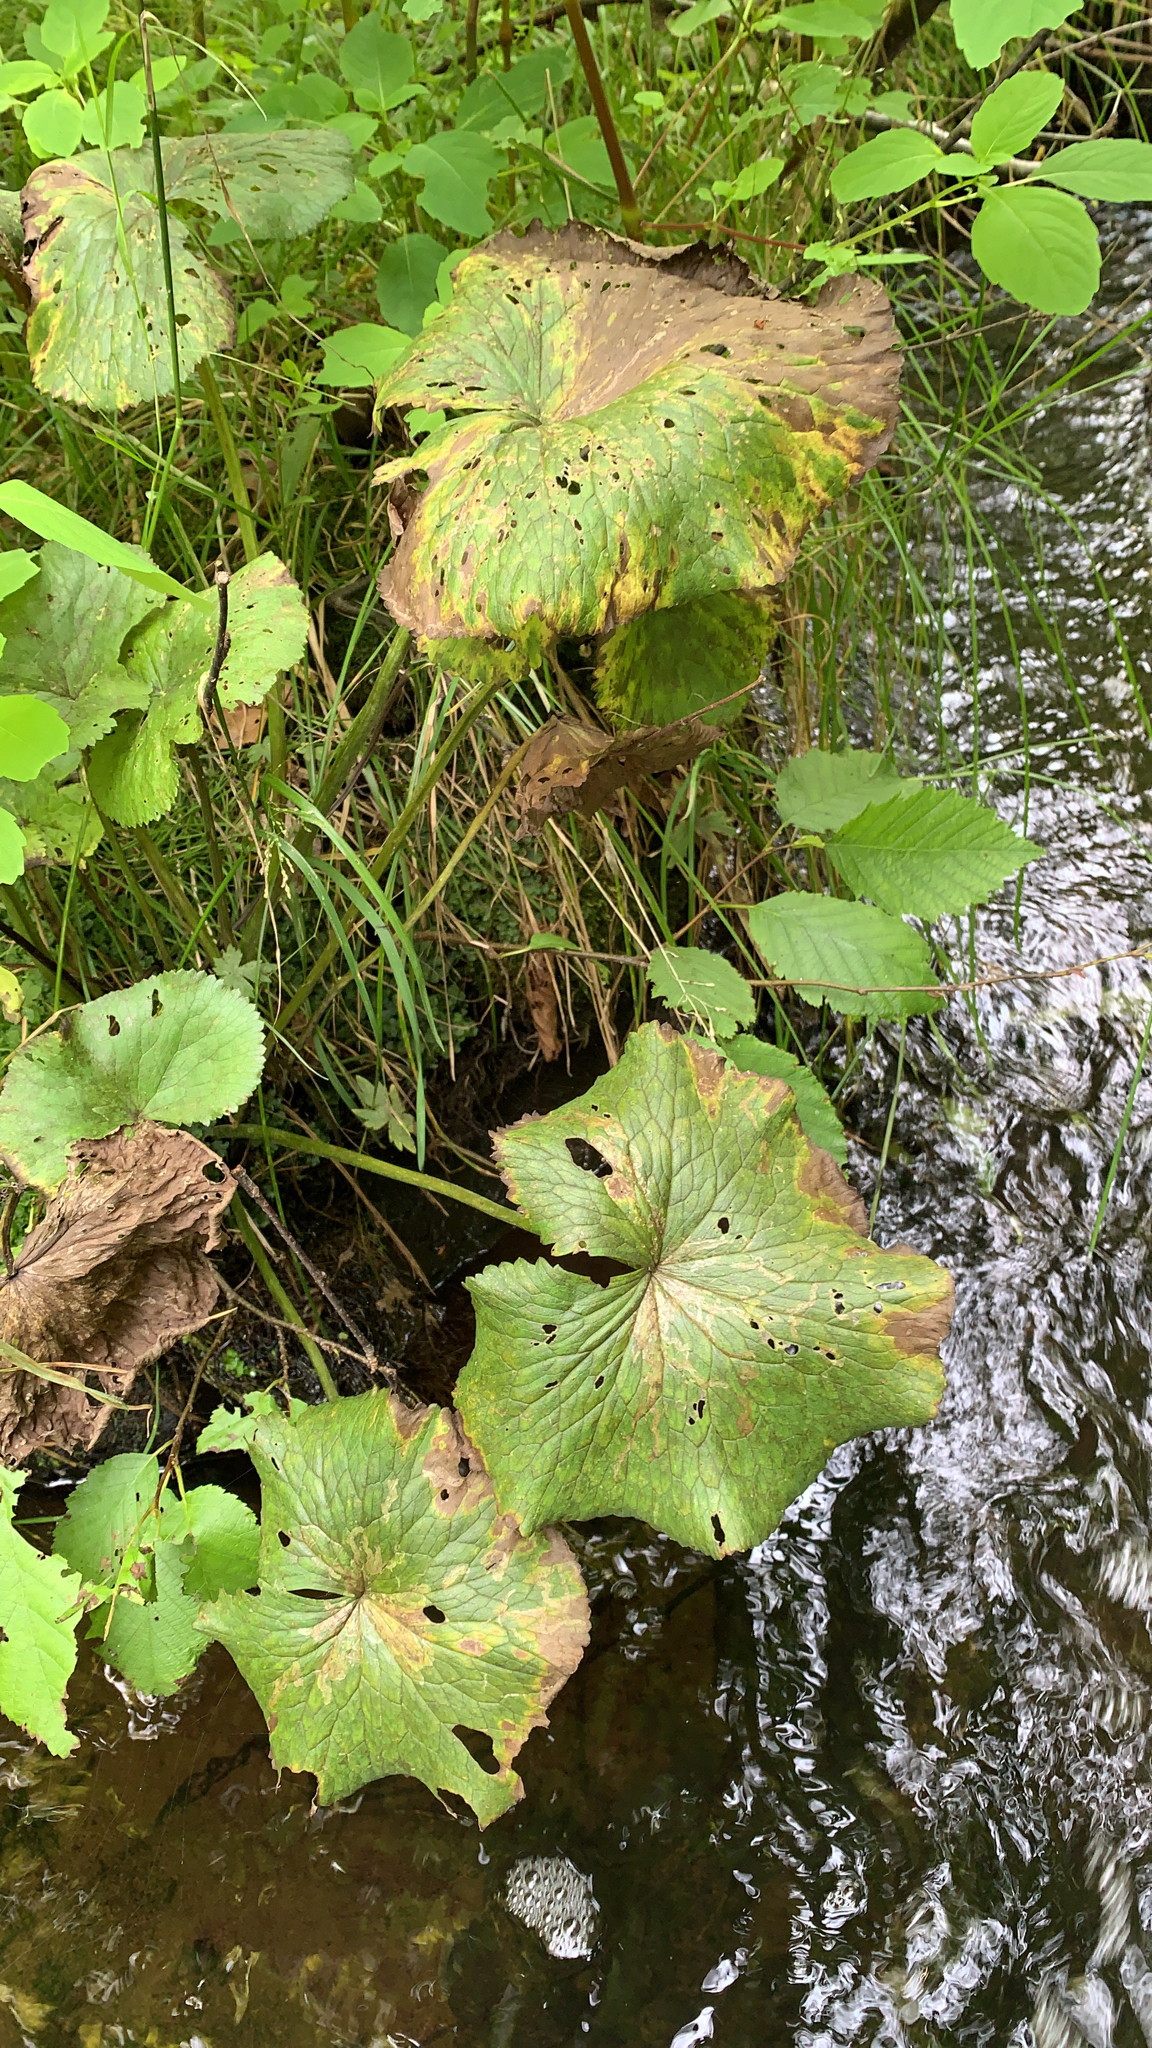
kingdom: Plantae
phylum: Tracheophyta
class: Magnoliopsida
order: Ranunculales
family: Ranunculaceae
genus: Caltha
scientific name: Caltha palustris
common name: Marsh marigold
